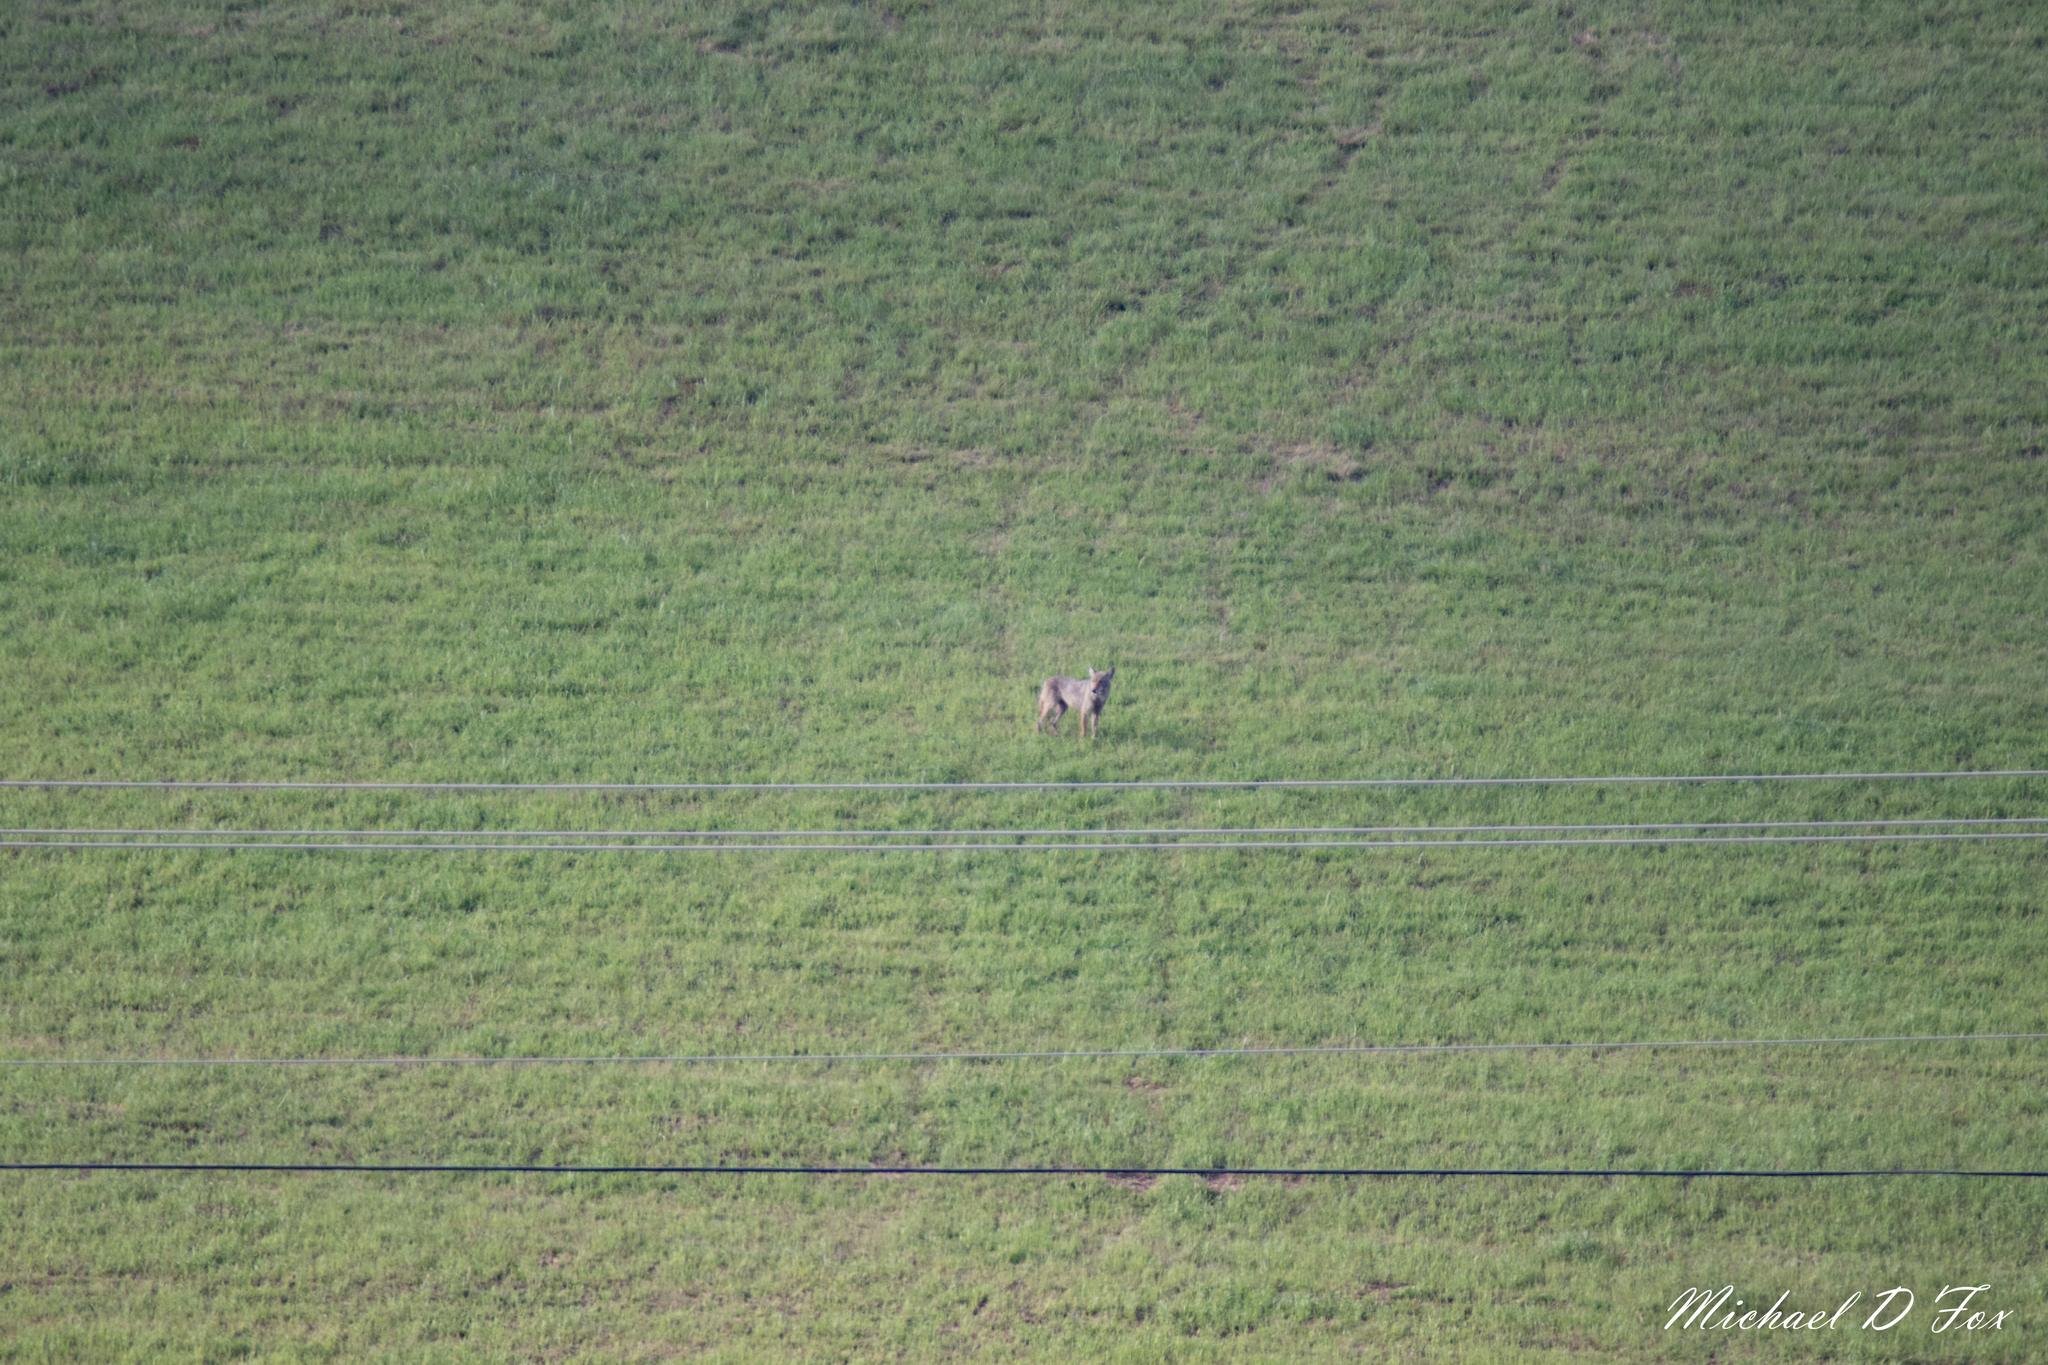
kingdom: Animalia
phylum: Chordata
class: Mammalia
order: Carnivora
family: Canidae
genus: Canis
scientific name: Canis latrans
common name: Coyote
